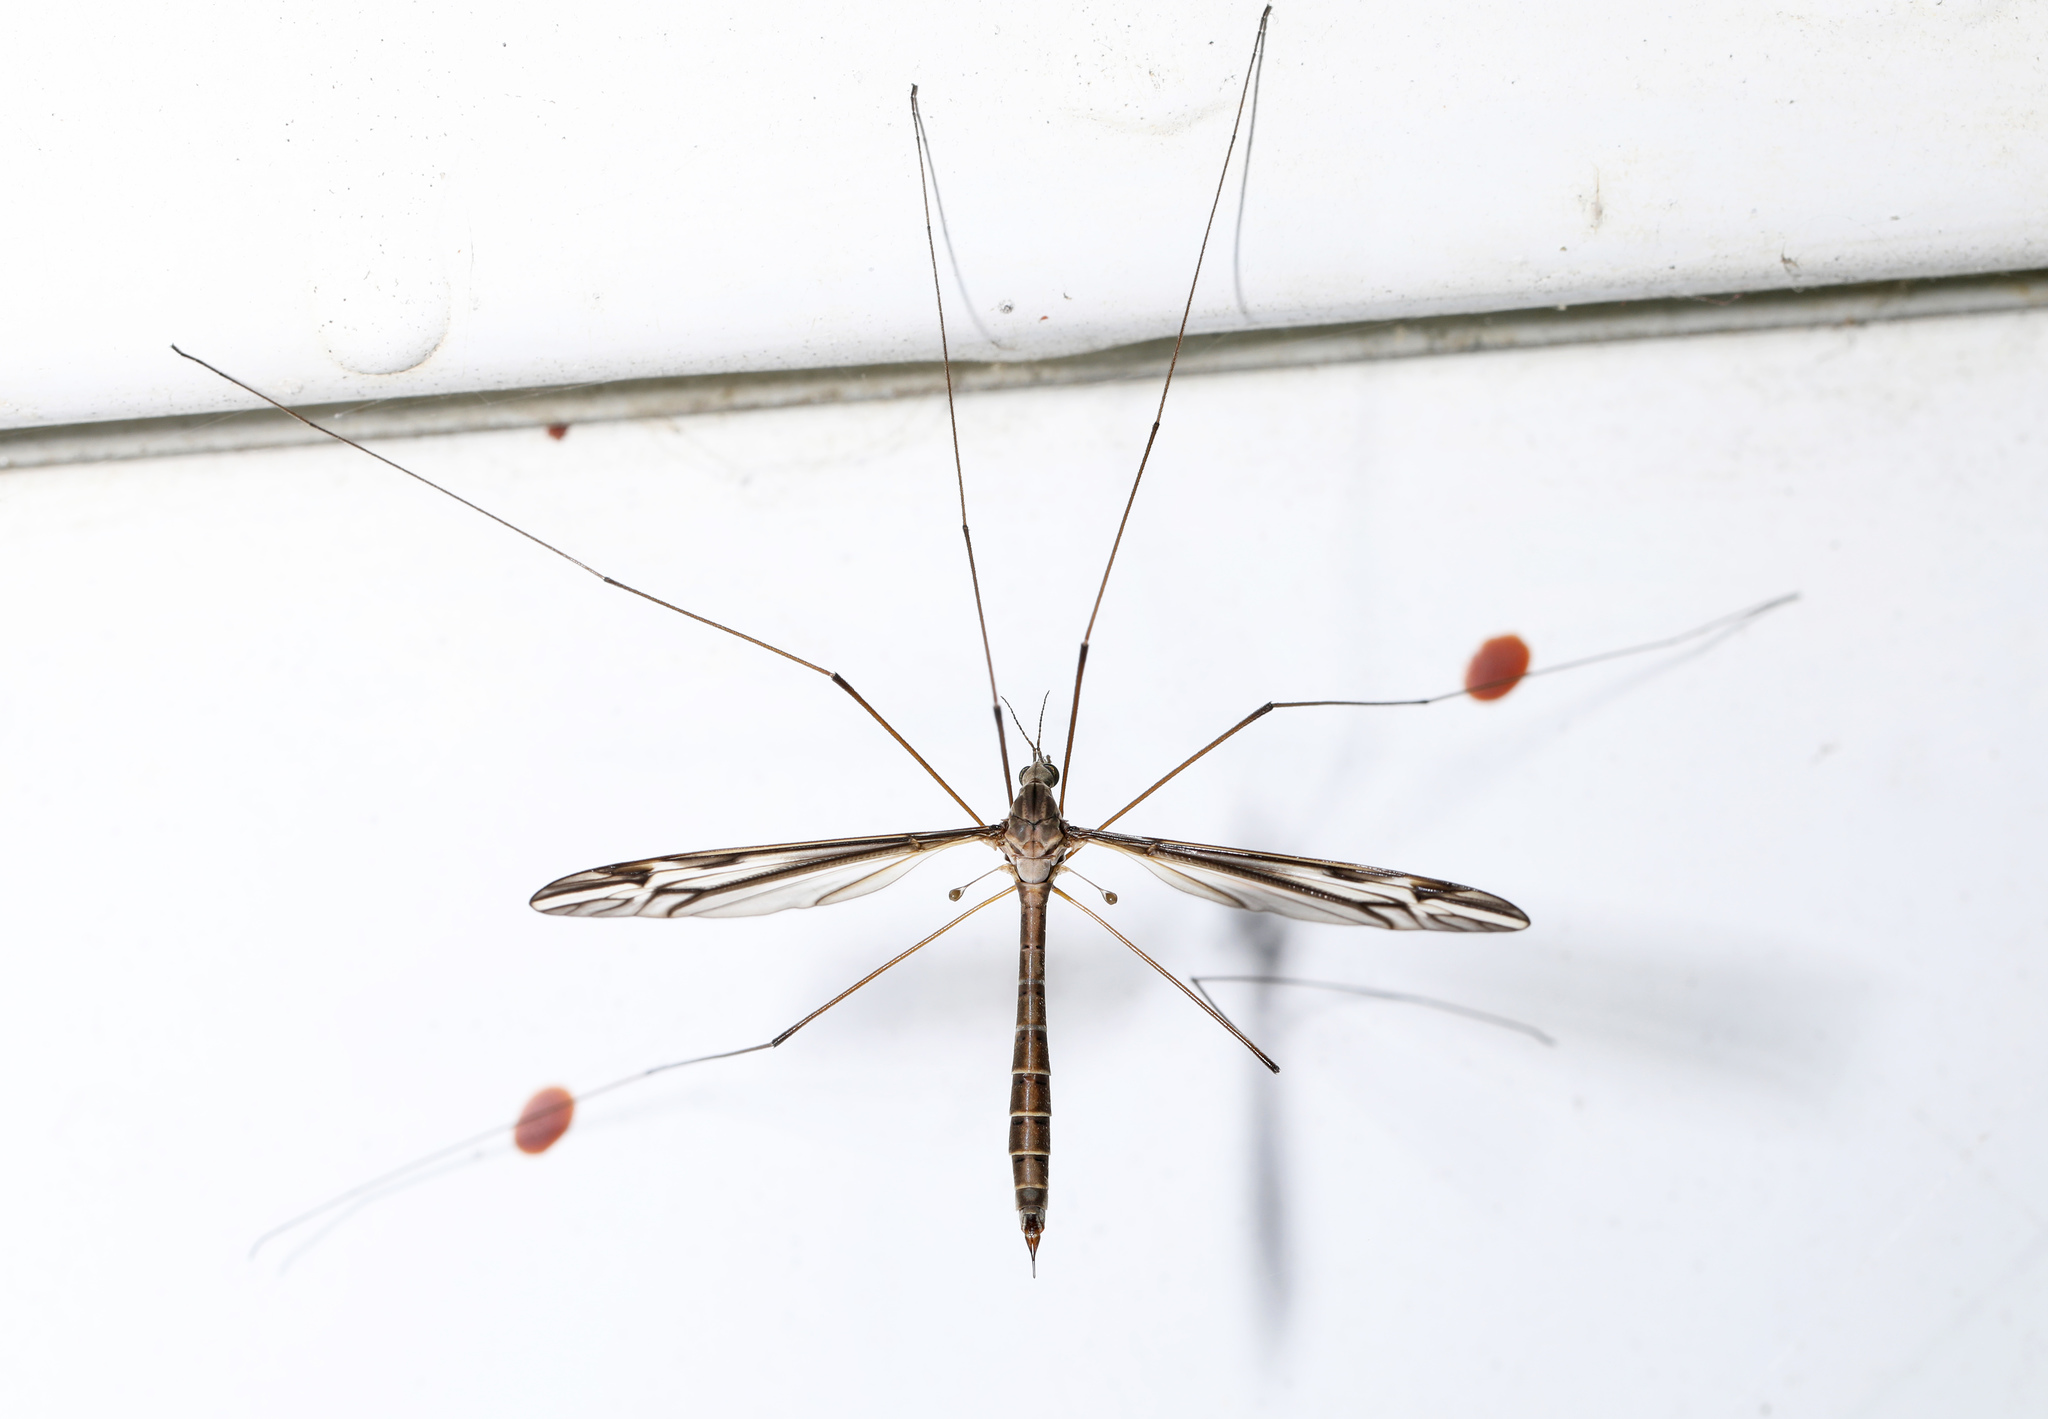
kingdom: Animalia
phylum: Arthropoda
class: Insecta
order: Diptera
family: Tipulidae
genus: Tipula
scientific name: Tipula furca
